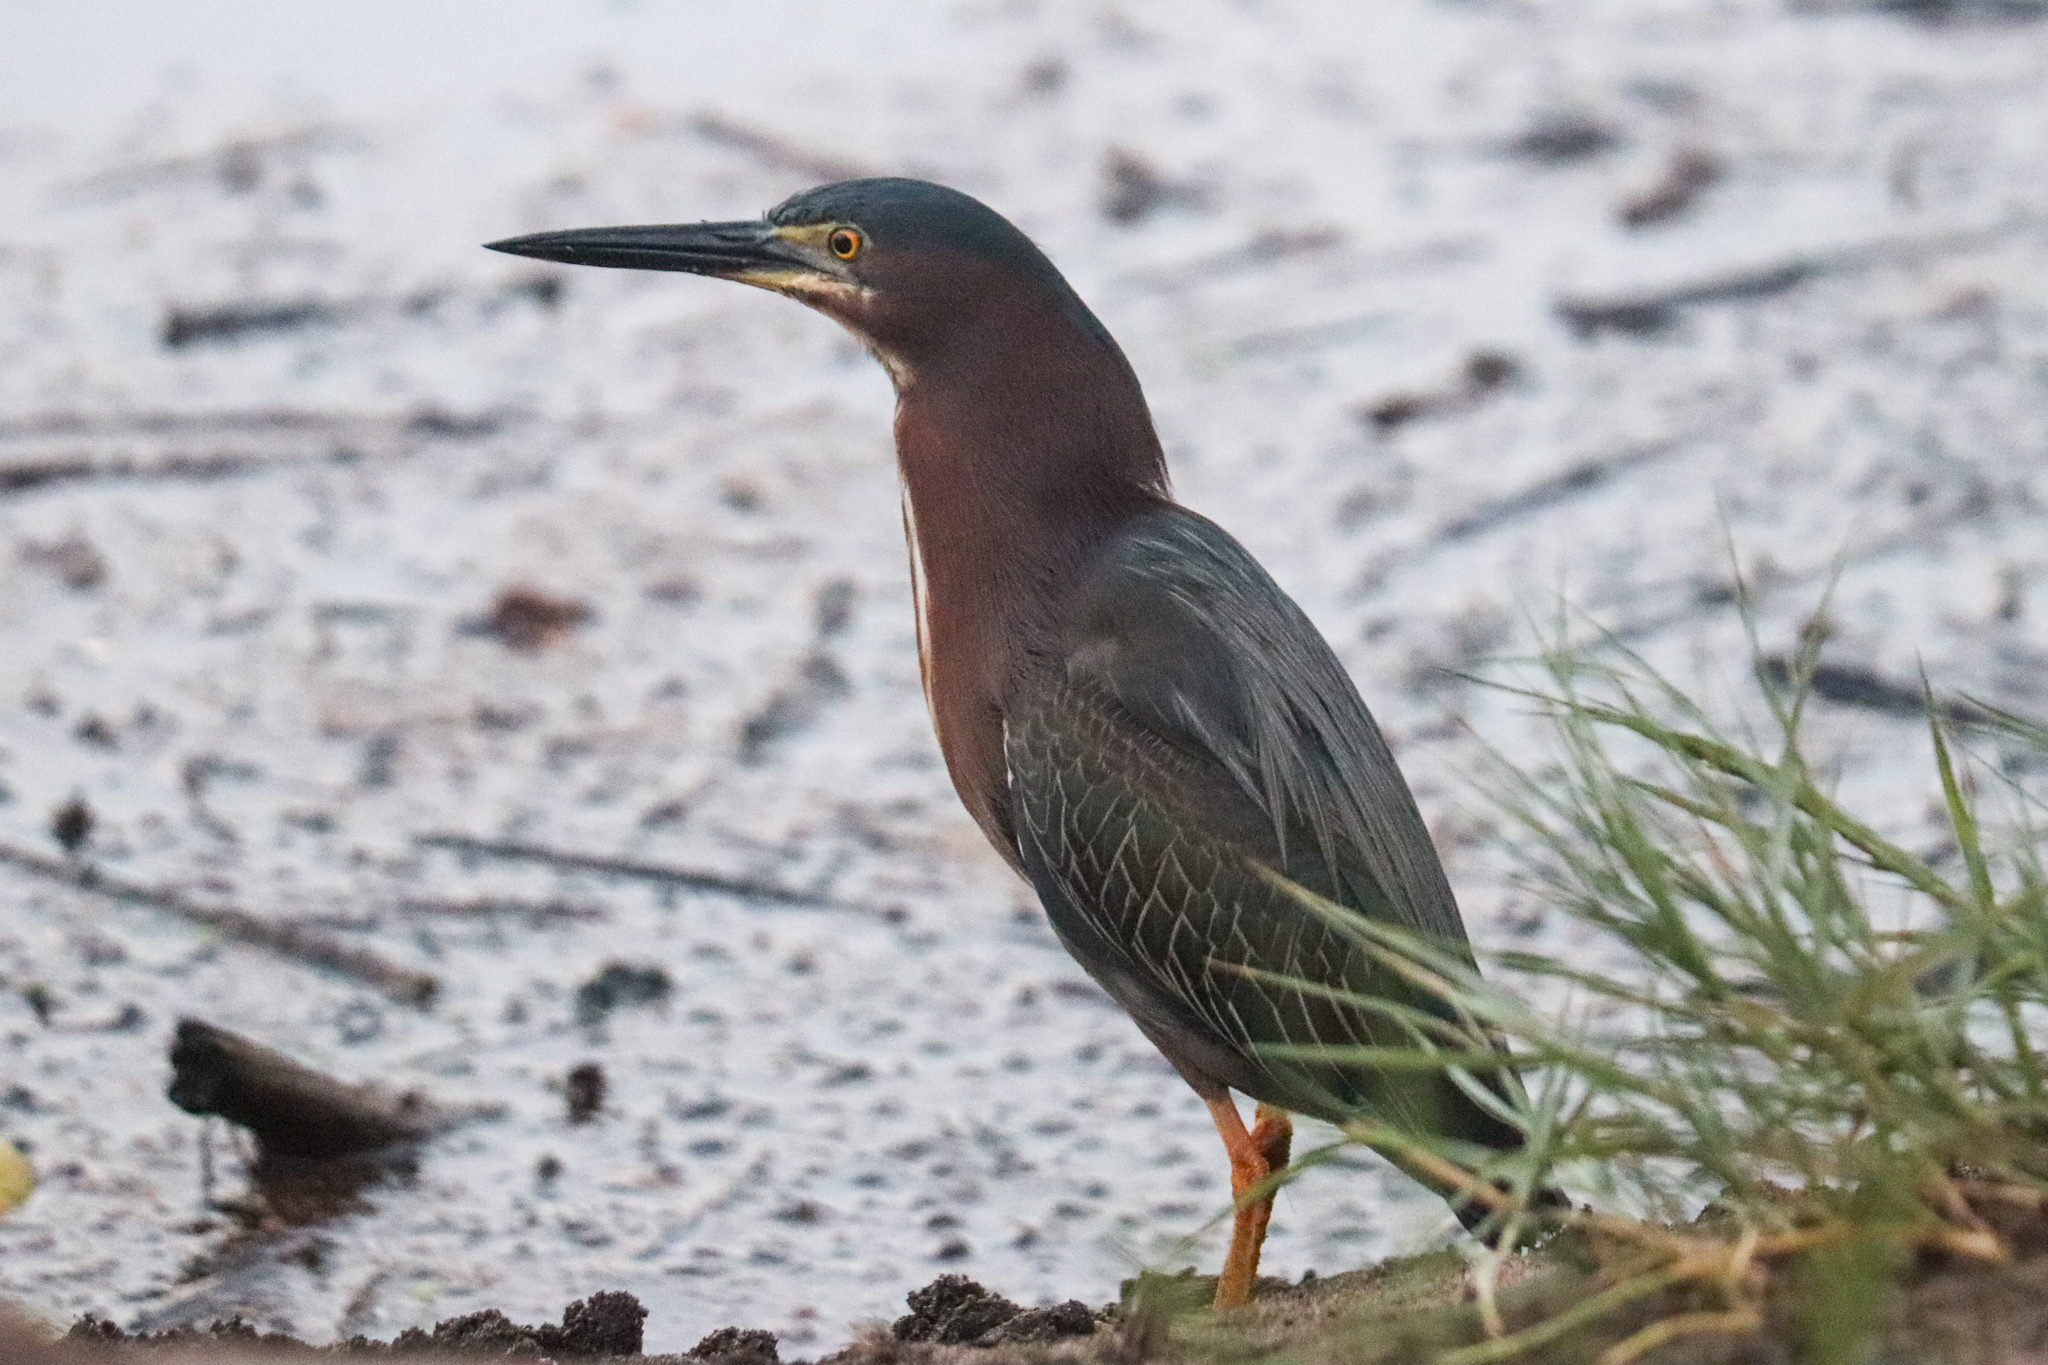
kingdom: Animalia
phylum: Chordata
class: Aves
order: Pelecaniformes
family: Ardeidae
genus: Butorides
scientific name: Butorides virescens
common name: Green heron
